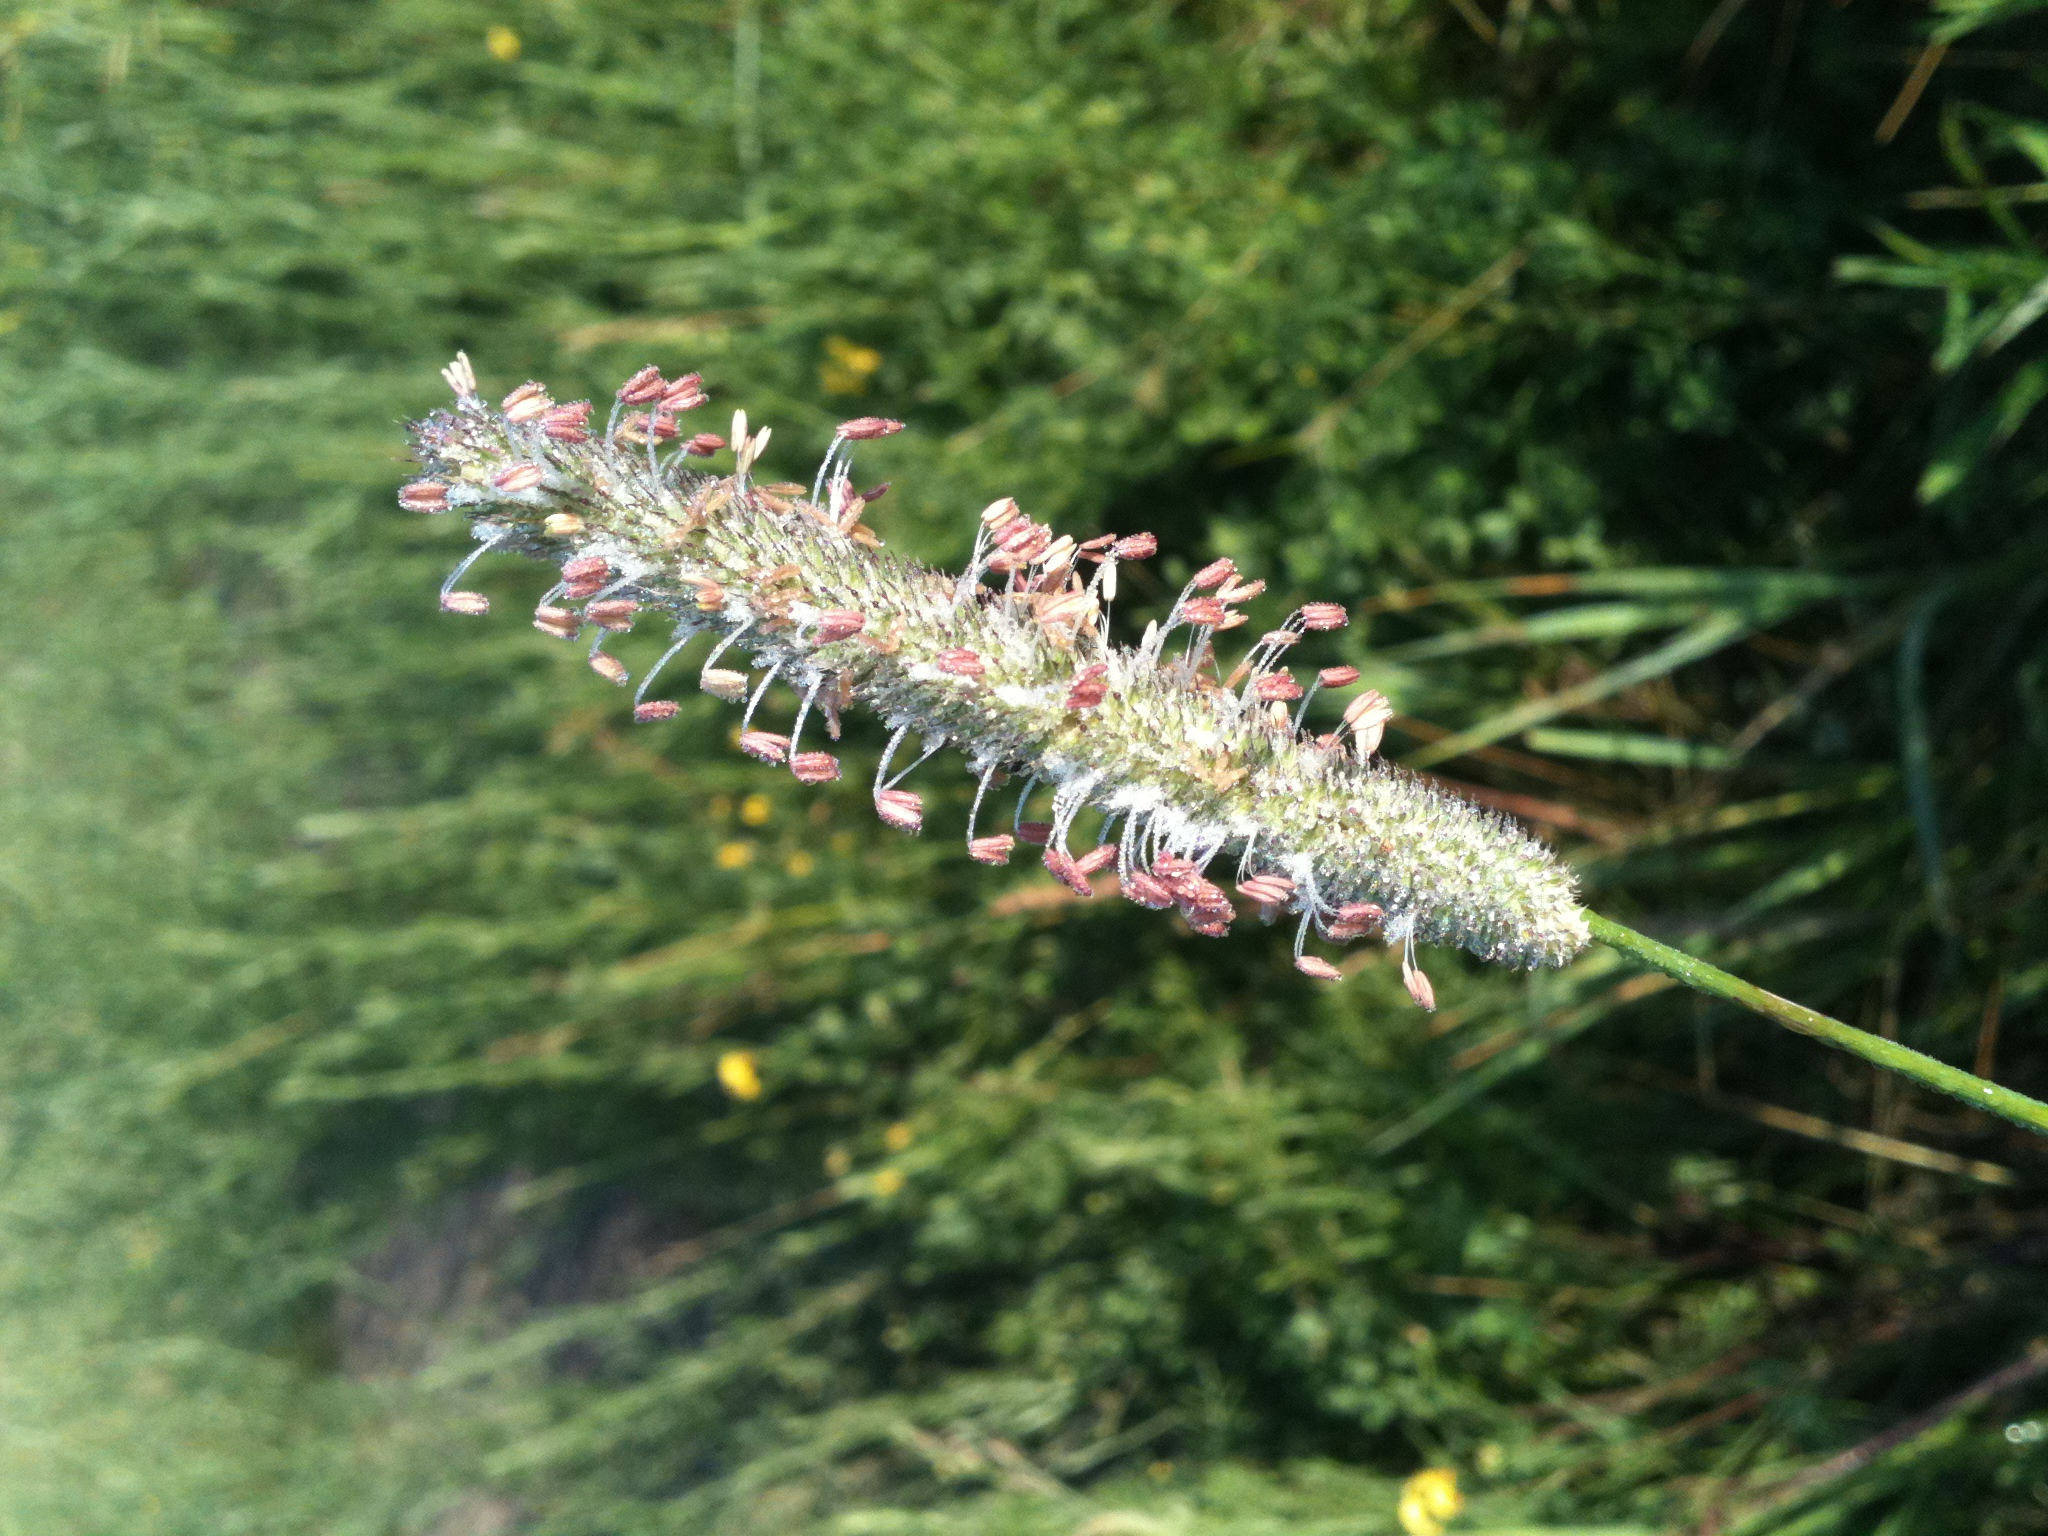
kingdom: Plantae
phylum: Tracheophyta
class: Liliopsida
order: Poales
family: Poaceae
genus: Phleum
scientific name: Phleum pratense
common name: Timothy grass
